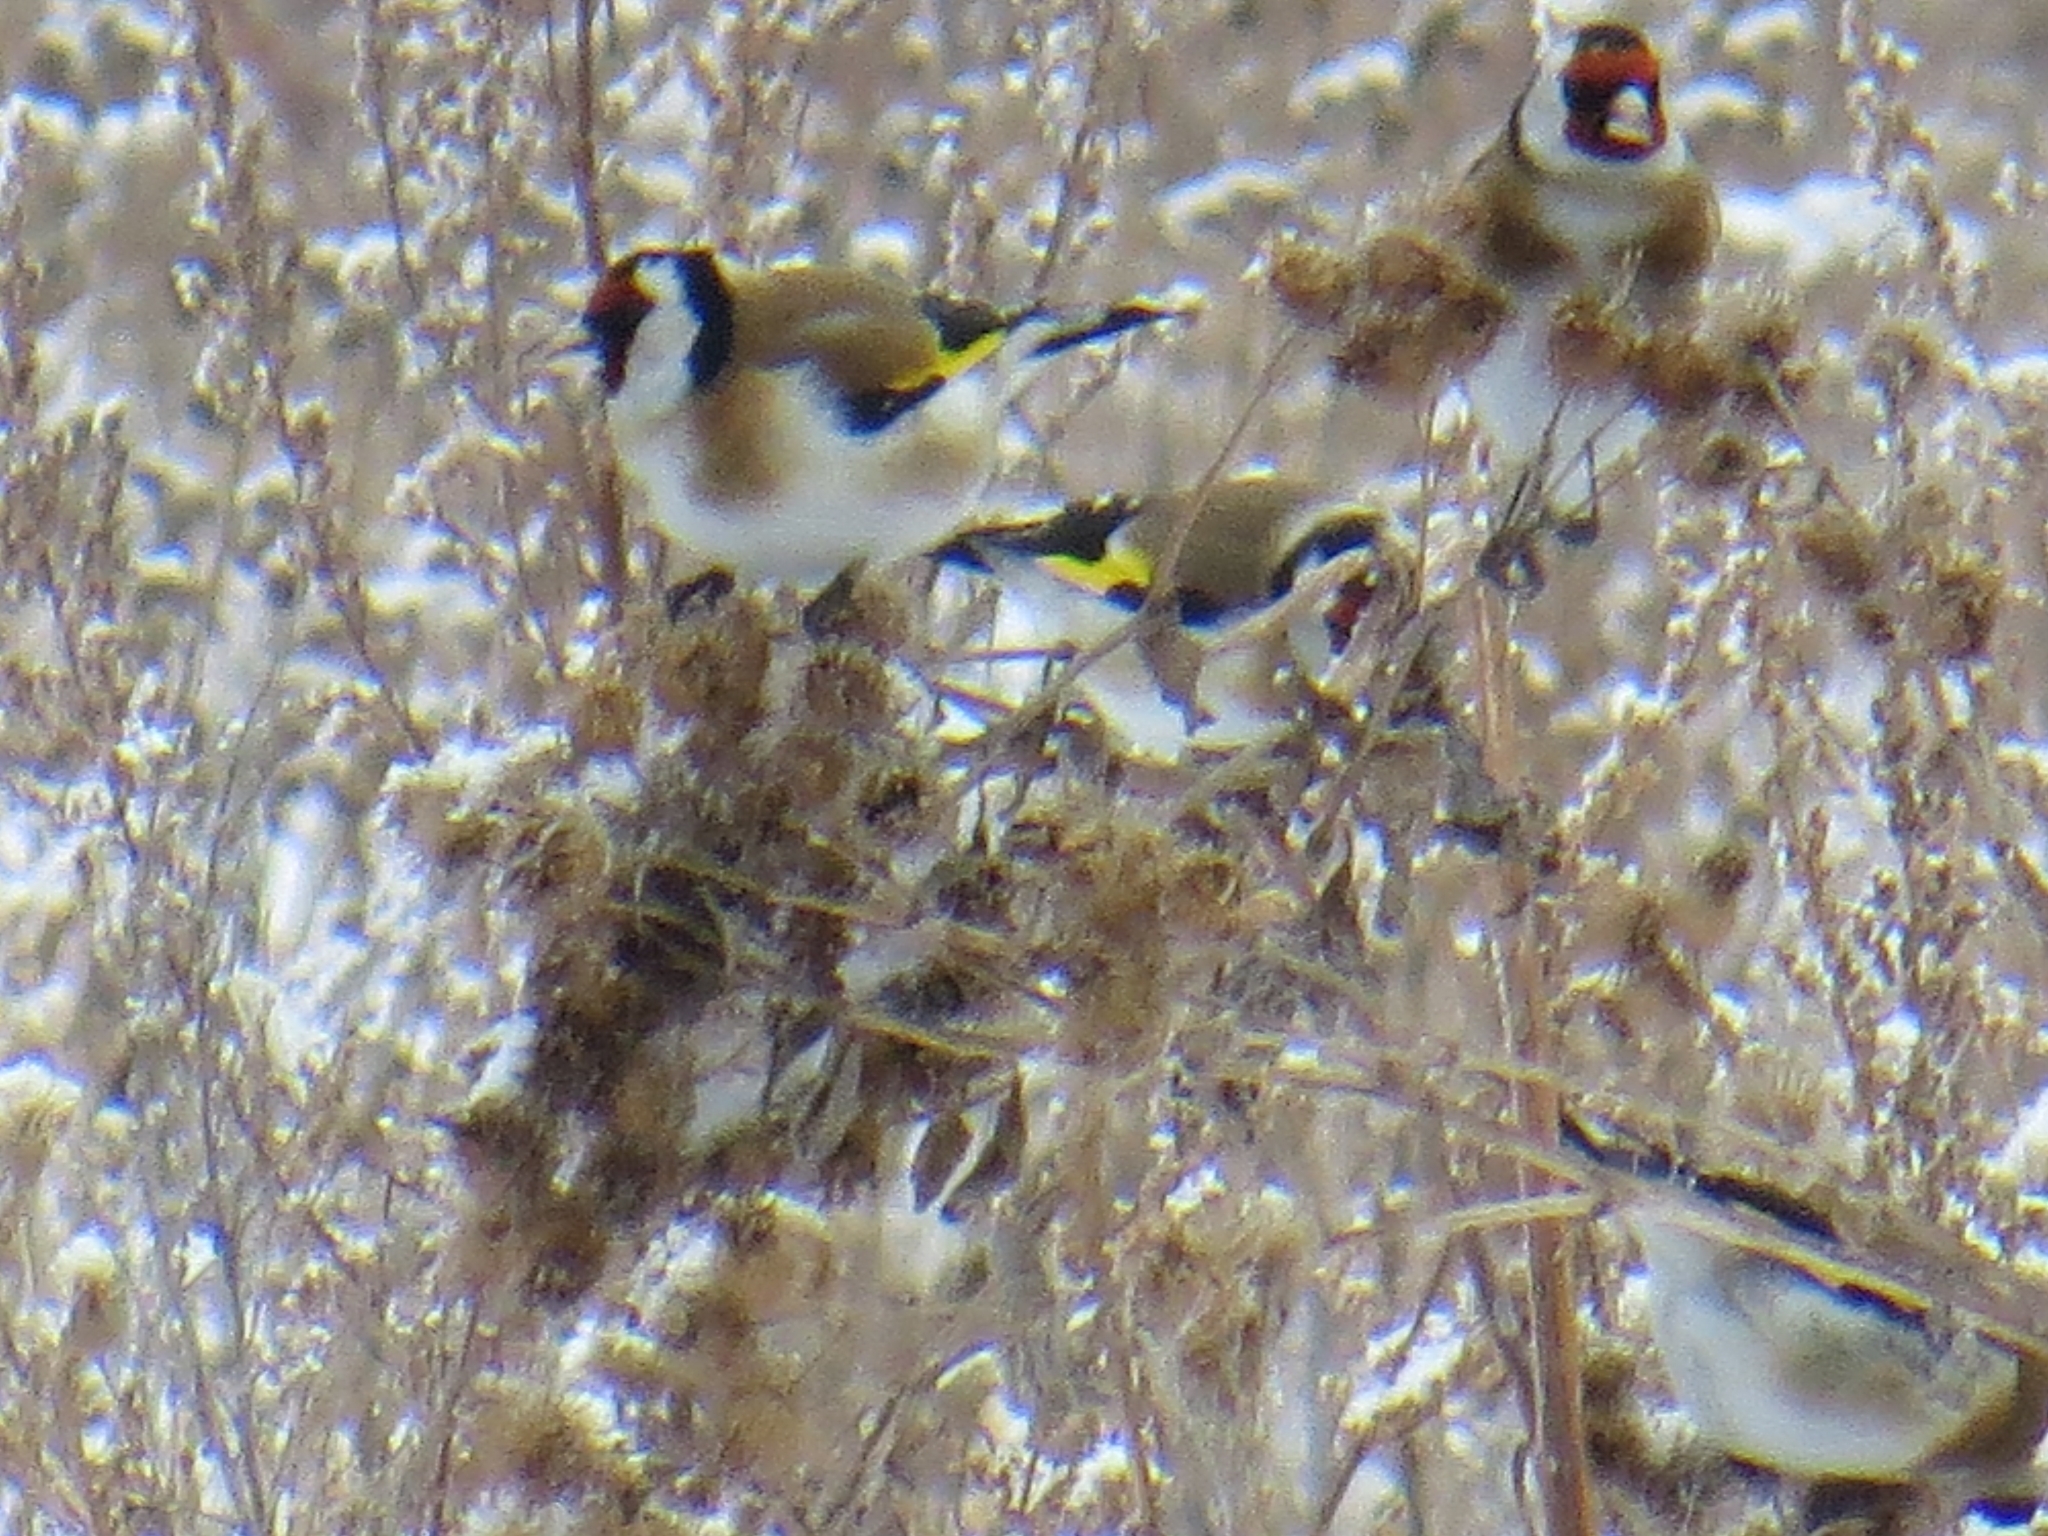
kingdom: Animalia
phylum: Chordata
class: Aves
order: Passeriformes
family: Fringillidae
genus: Carduelis
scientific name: Carduelis carduelis
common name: European goldfinch
